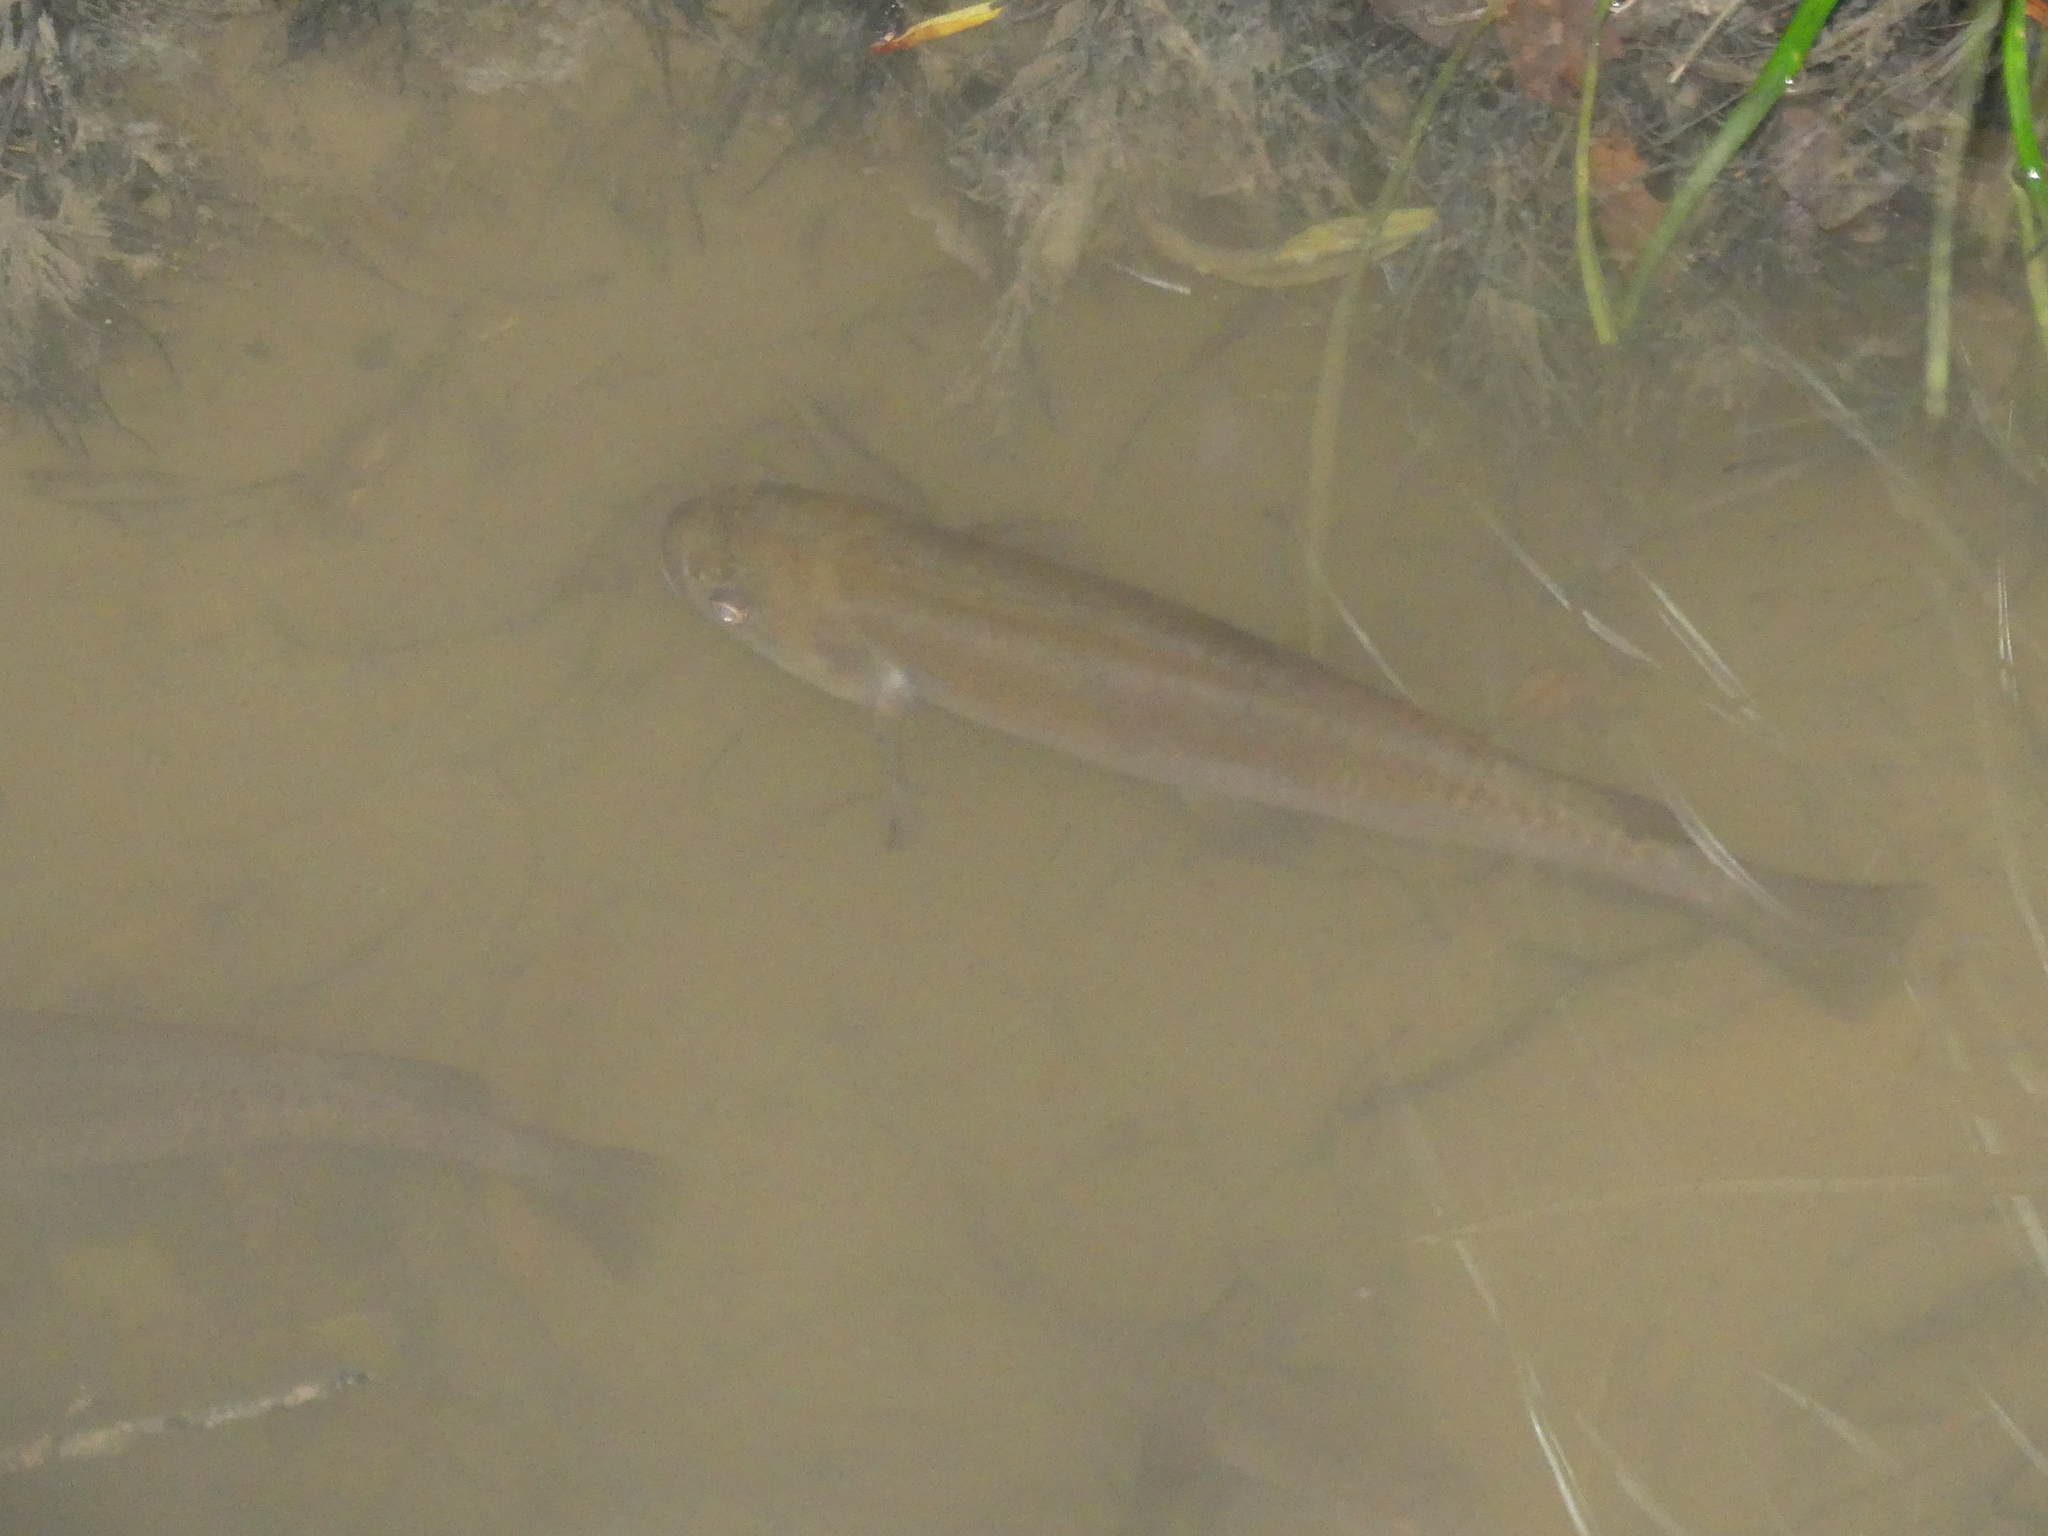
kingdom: Animalia
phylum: Chordata
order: Osmeriformes
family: Galaxiidae
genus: Galaxias
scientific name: Galaxias fasciatus
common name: Banded kokopu
